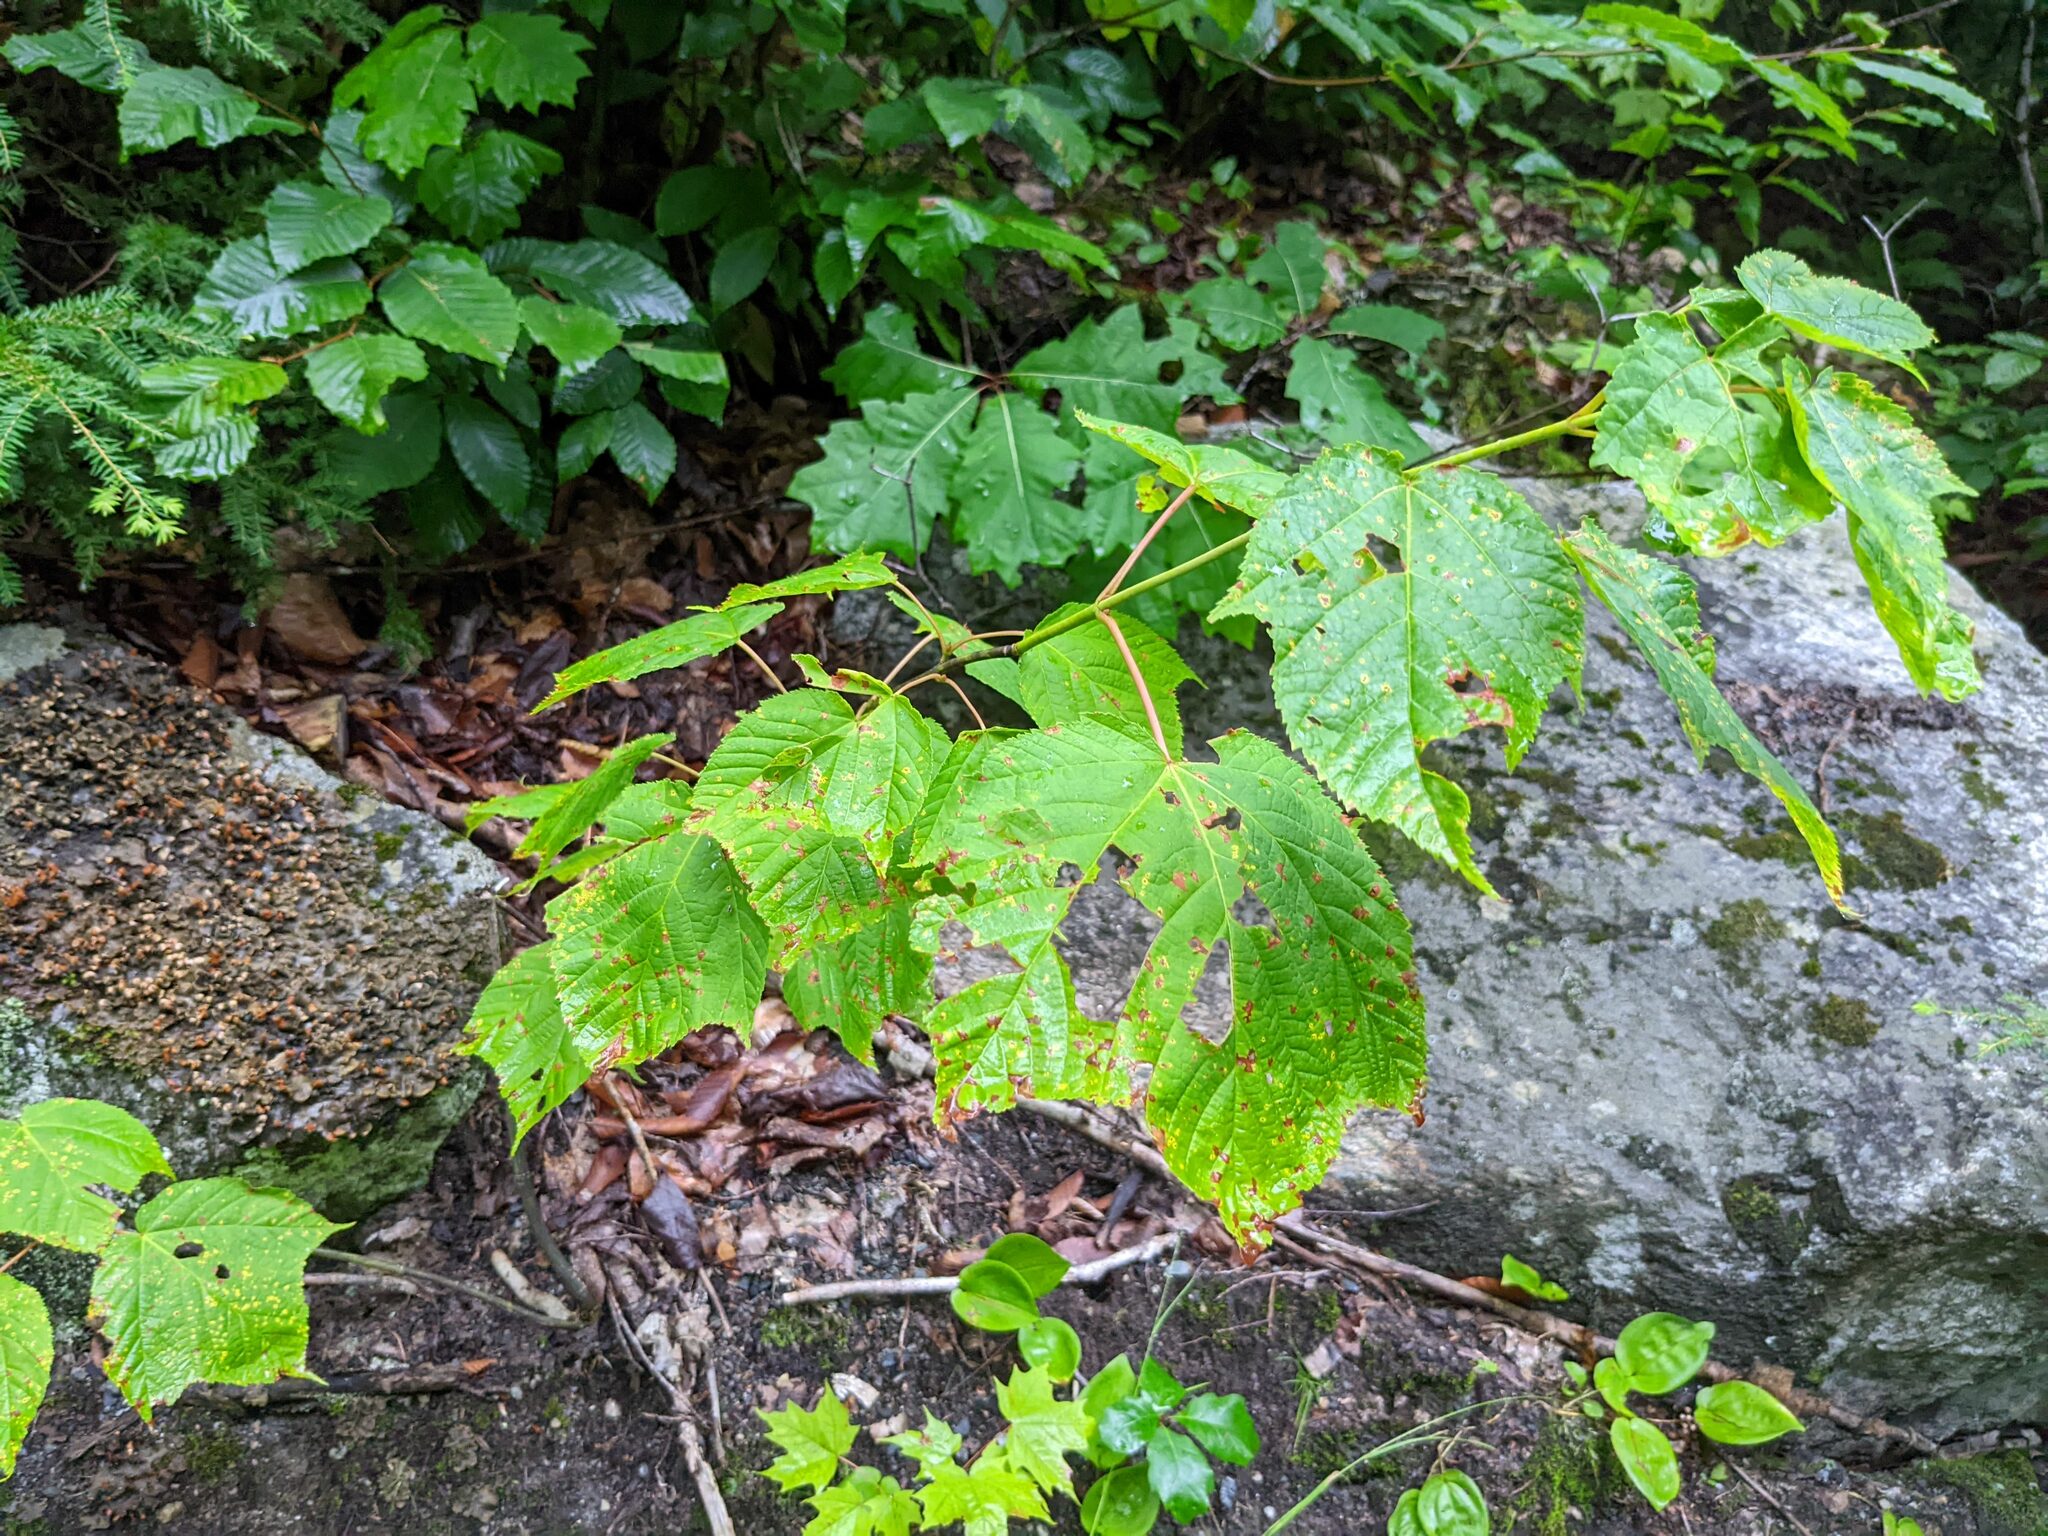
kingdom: Plantae
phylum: Tracheophyta
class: Magnoliopsida
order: Sapindales
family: Sapindaceae
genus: Acer
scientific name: Acer pensylvanicum
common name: Moosewood
